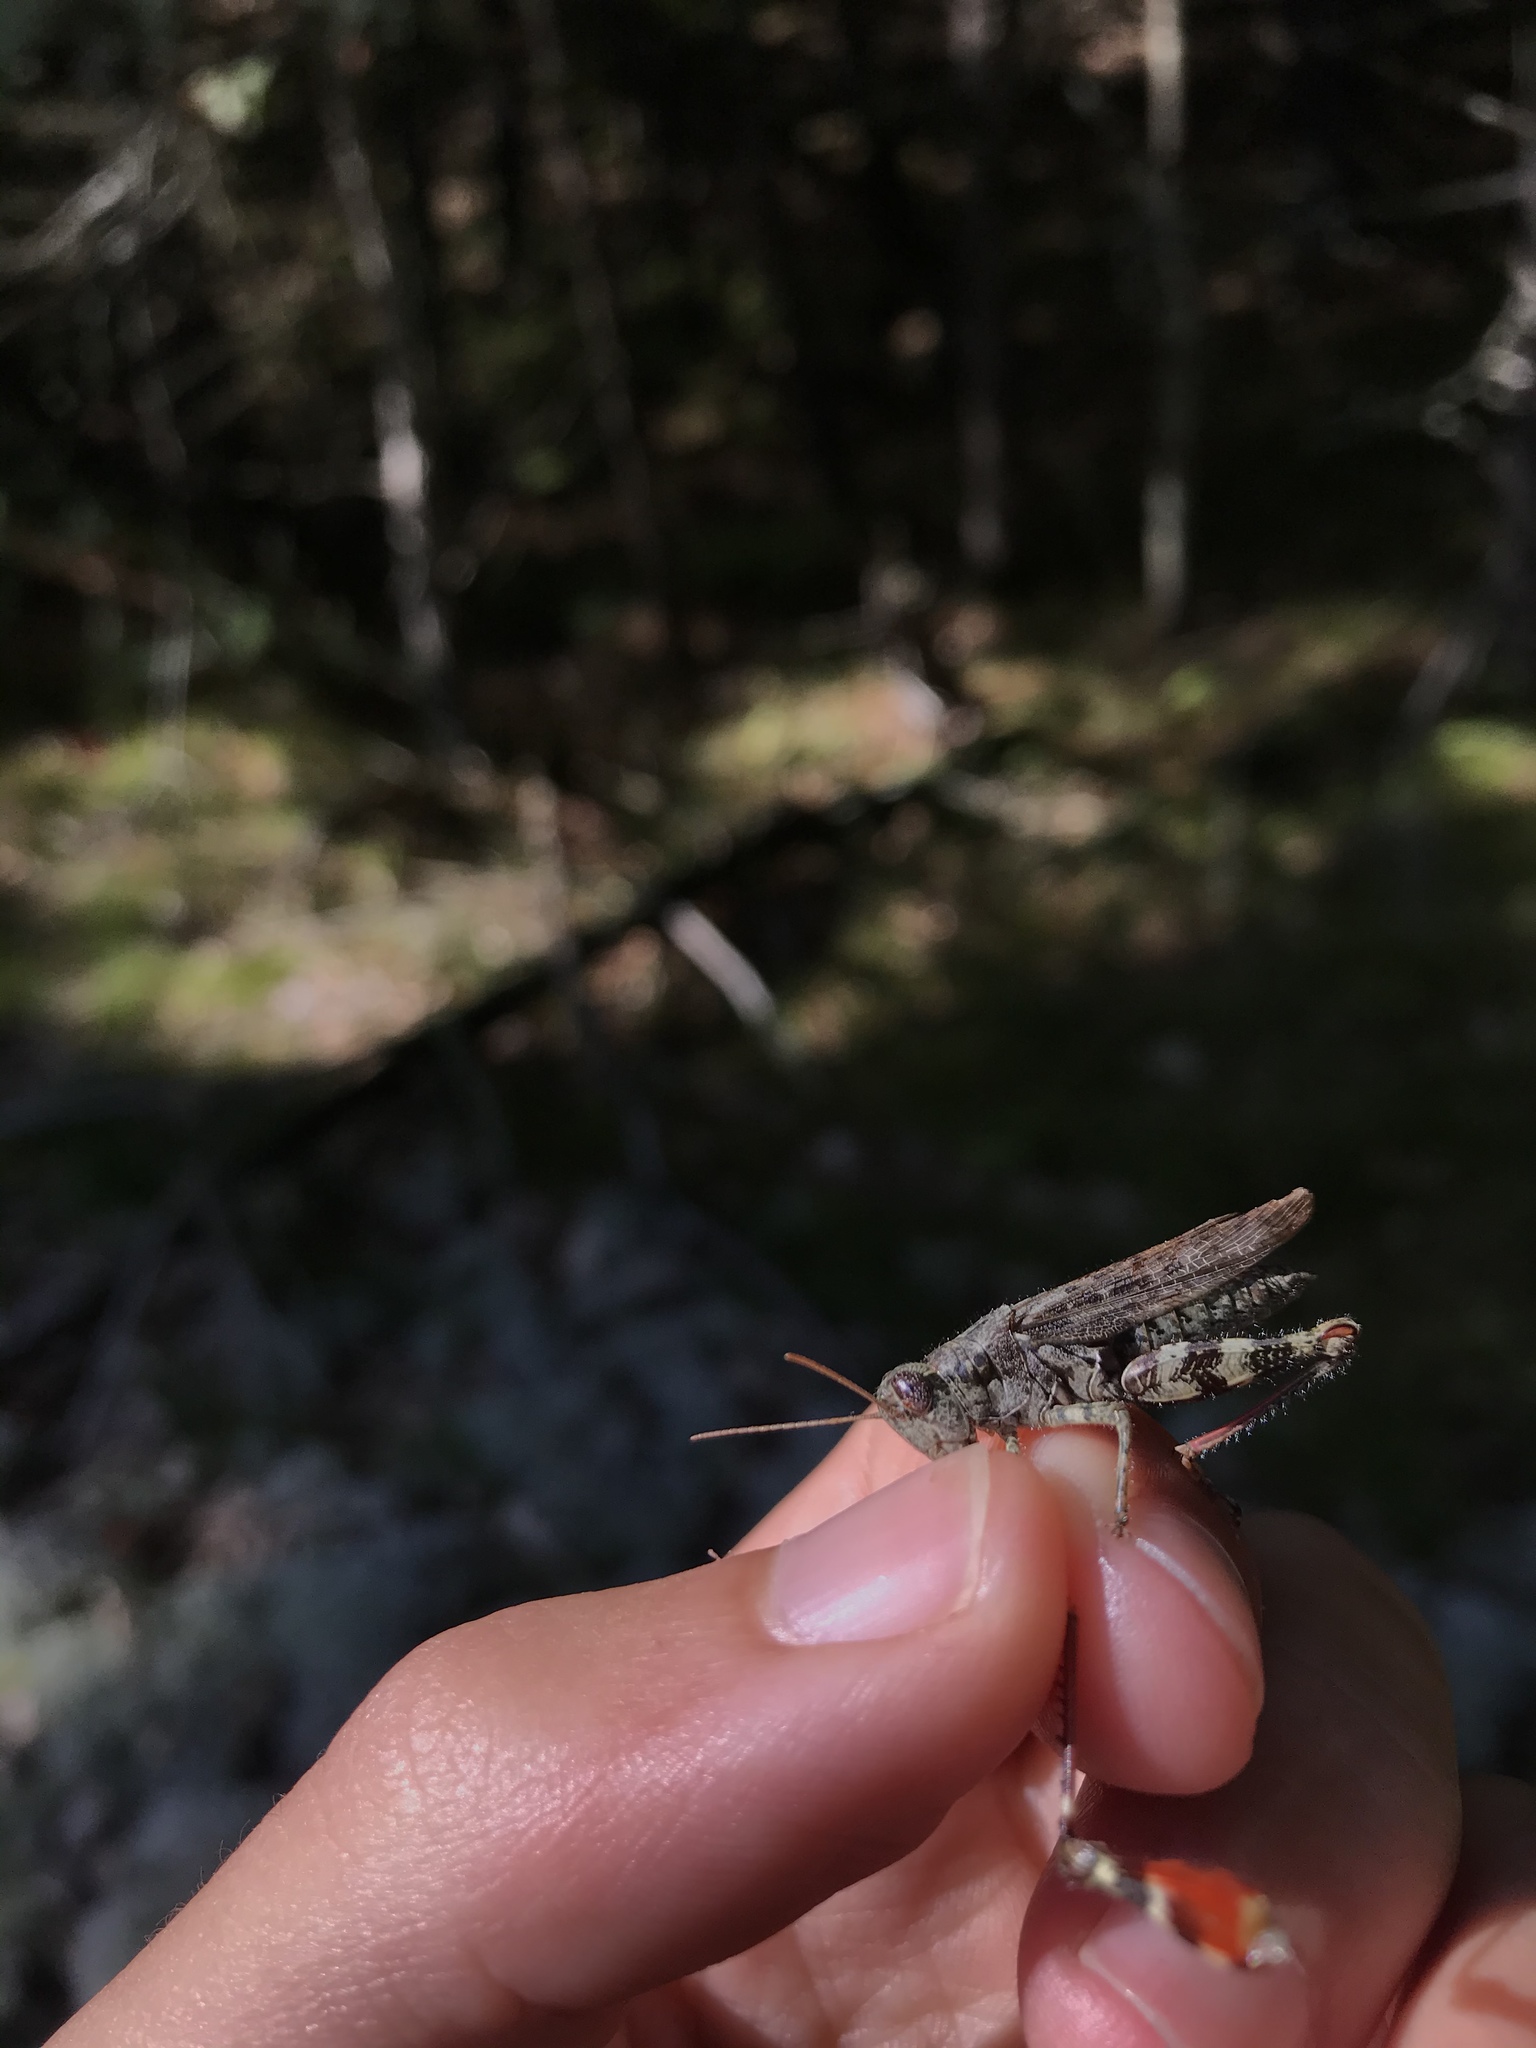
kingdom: Animalia
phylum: Arthropoda
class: Insecta
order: Orthoptera
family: Acrididae
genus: Melanoplus
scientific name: Melanoplus punctulatus
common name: Pine-tree spur-throat grasshopper
